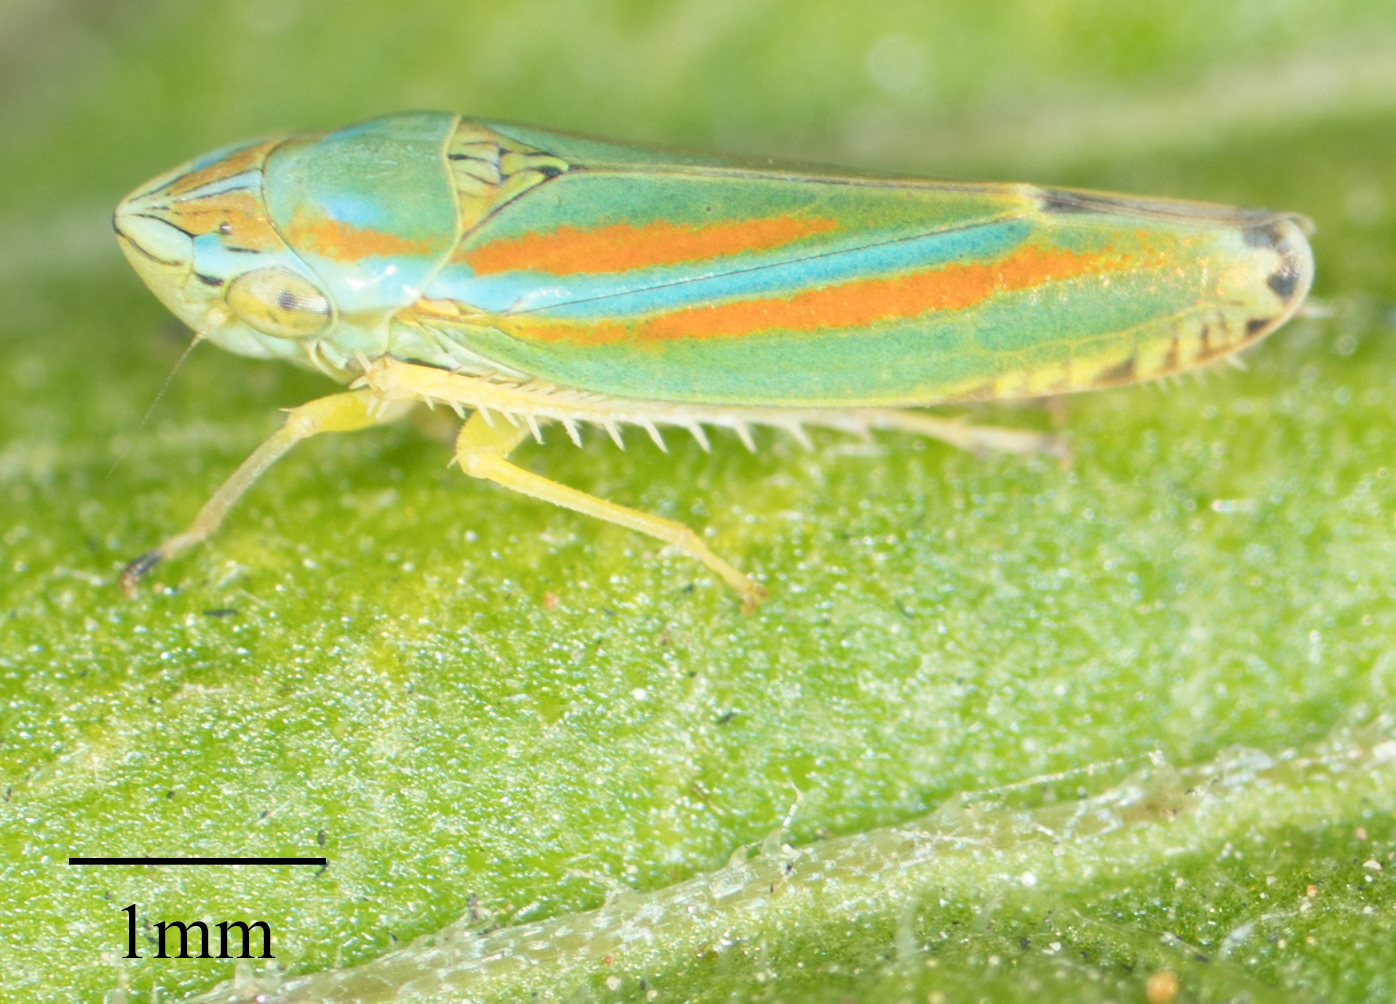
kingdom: Animalia
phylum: Arthropoda
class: Insecta
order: Hemiptera
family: Cicadellidae
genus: Graphocephala
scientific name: Graphocephala versuta
